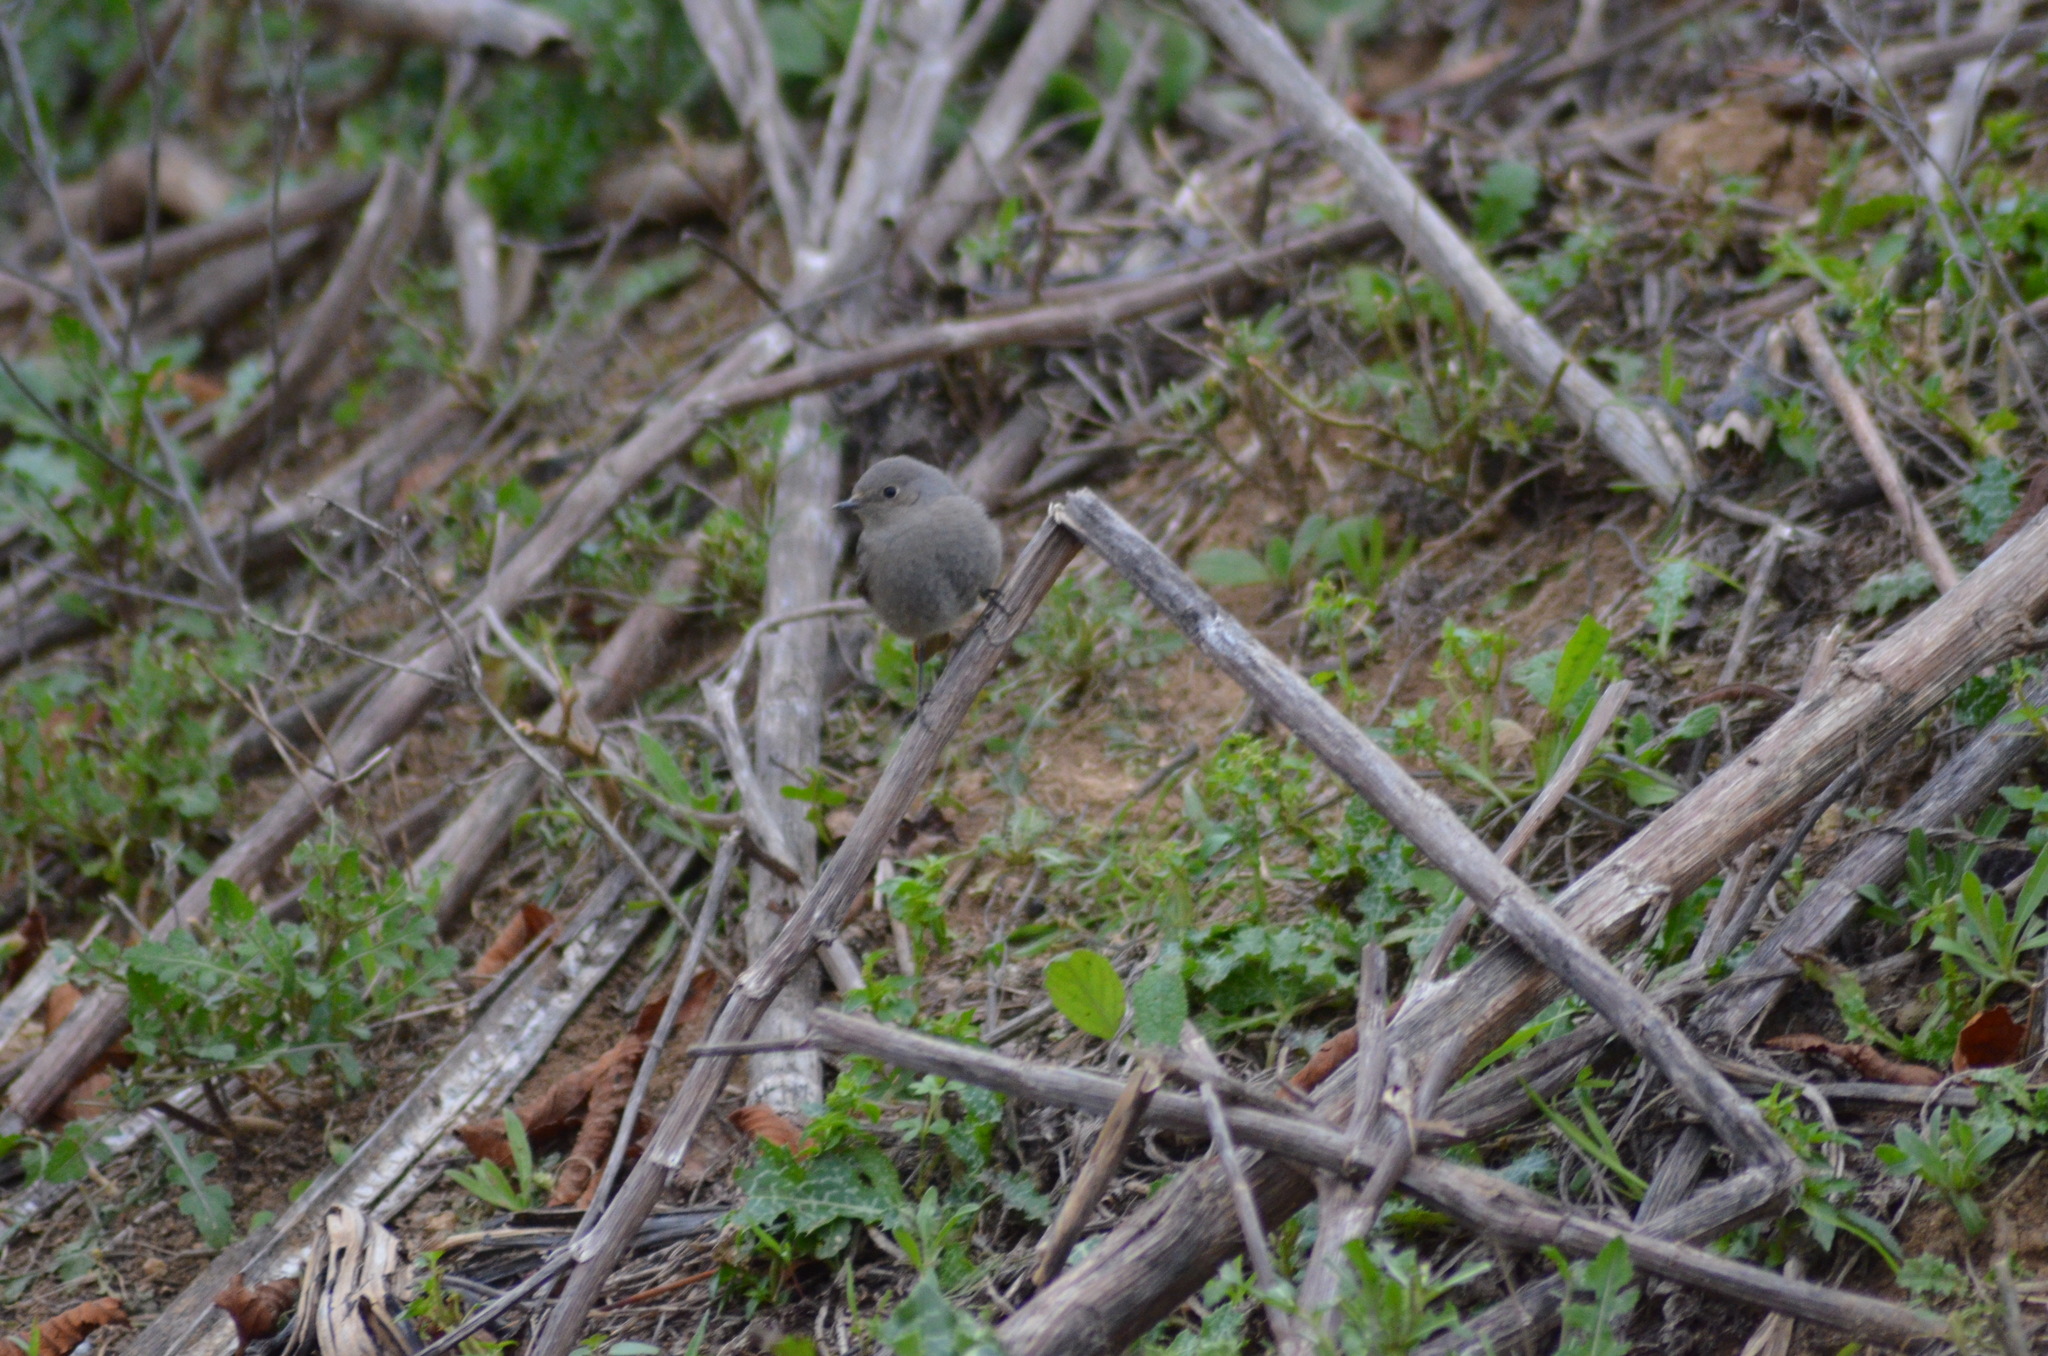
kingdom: Animalia
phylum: Chordata
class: Aves
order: Passeriformes
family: Muscicapidae
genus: Phoenicurus
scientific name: Phoenicurus ochruros
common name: Black redstart
